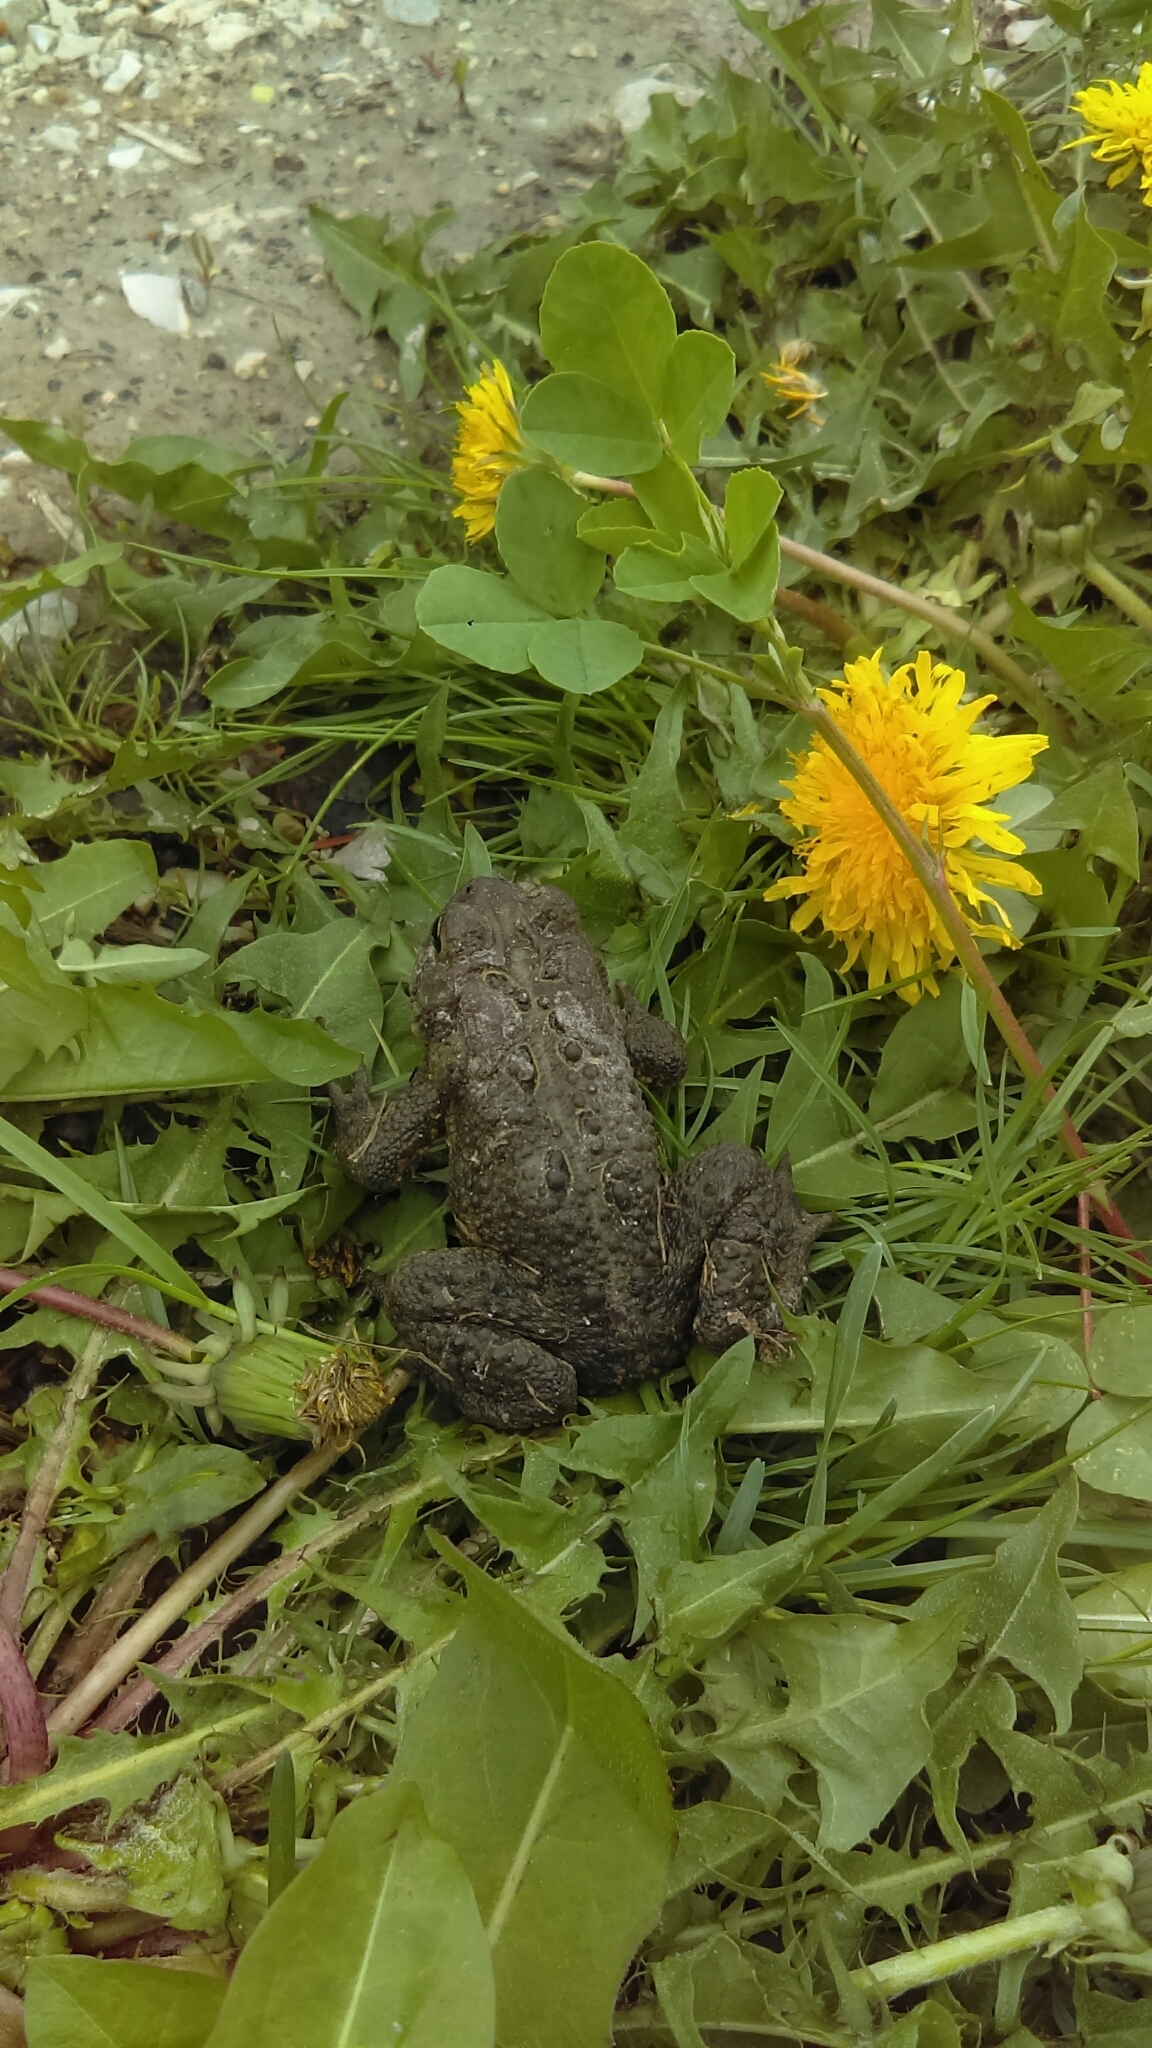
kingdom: Animalia
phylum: Chordata
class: Amphibia
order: Anura
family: Bufonidae
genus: Anaxyrus
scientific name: Anaxyrus americanus
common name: American toad
